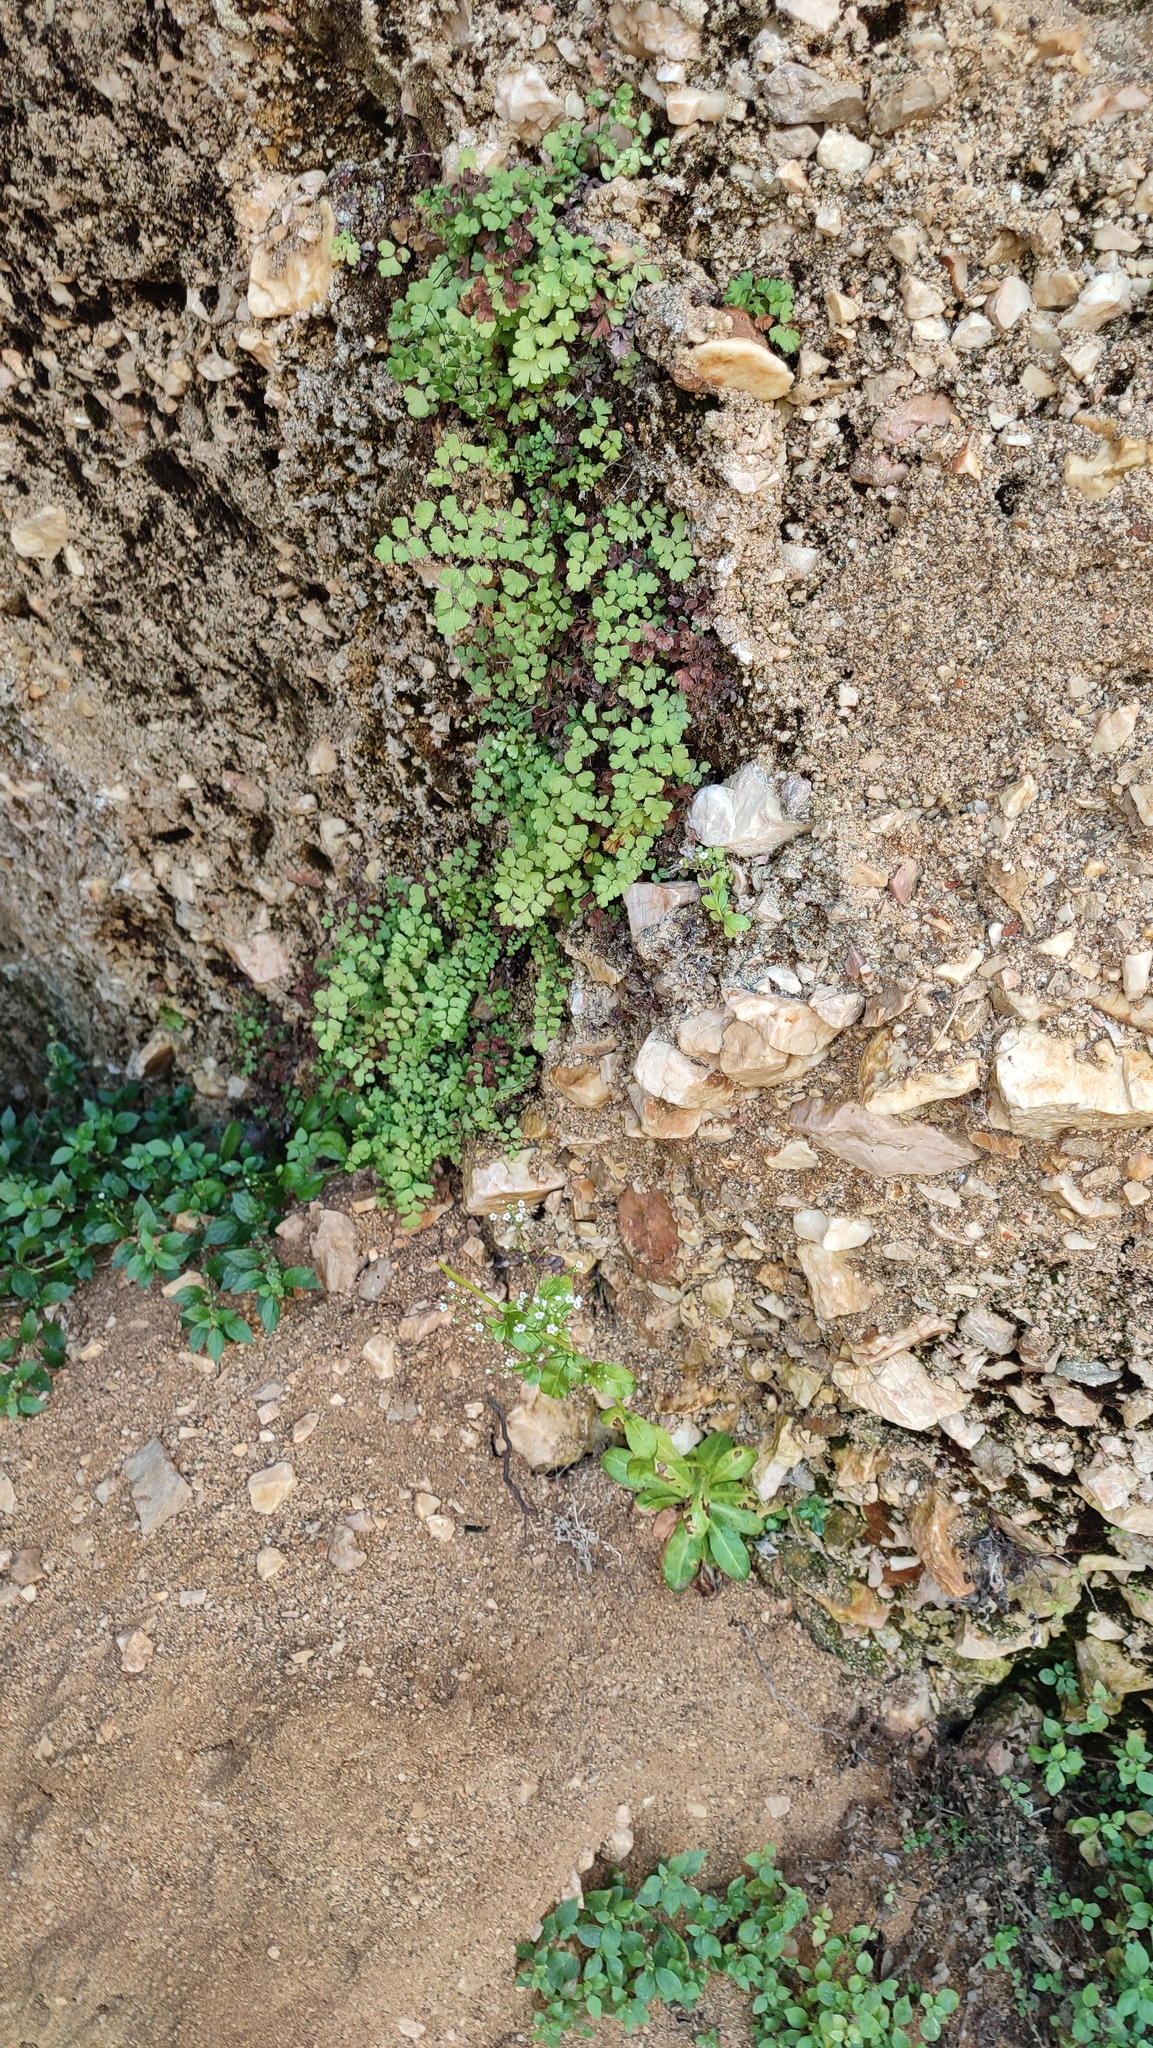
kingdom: Plantae
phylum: Tracheophyta
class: Polypodiopsida
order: Polypodiales
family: Pteridaceae
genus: Adiantum
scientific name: Adiantum capillus-veneris
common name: Maidenhair fern
